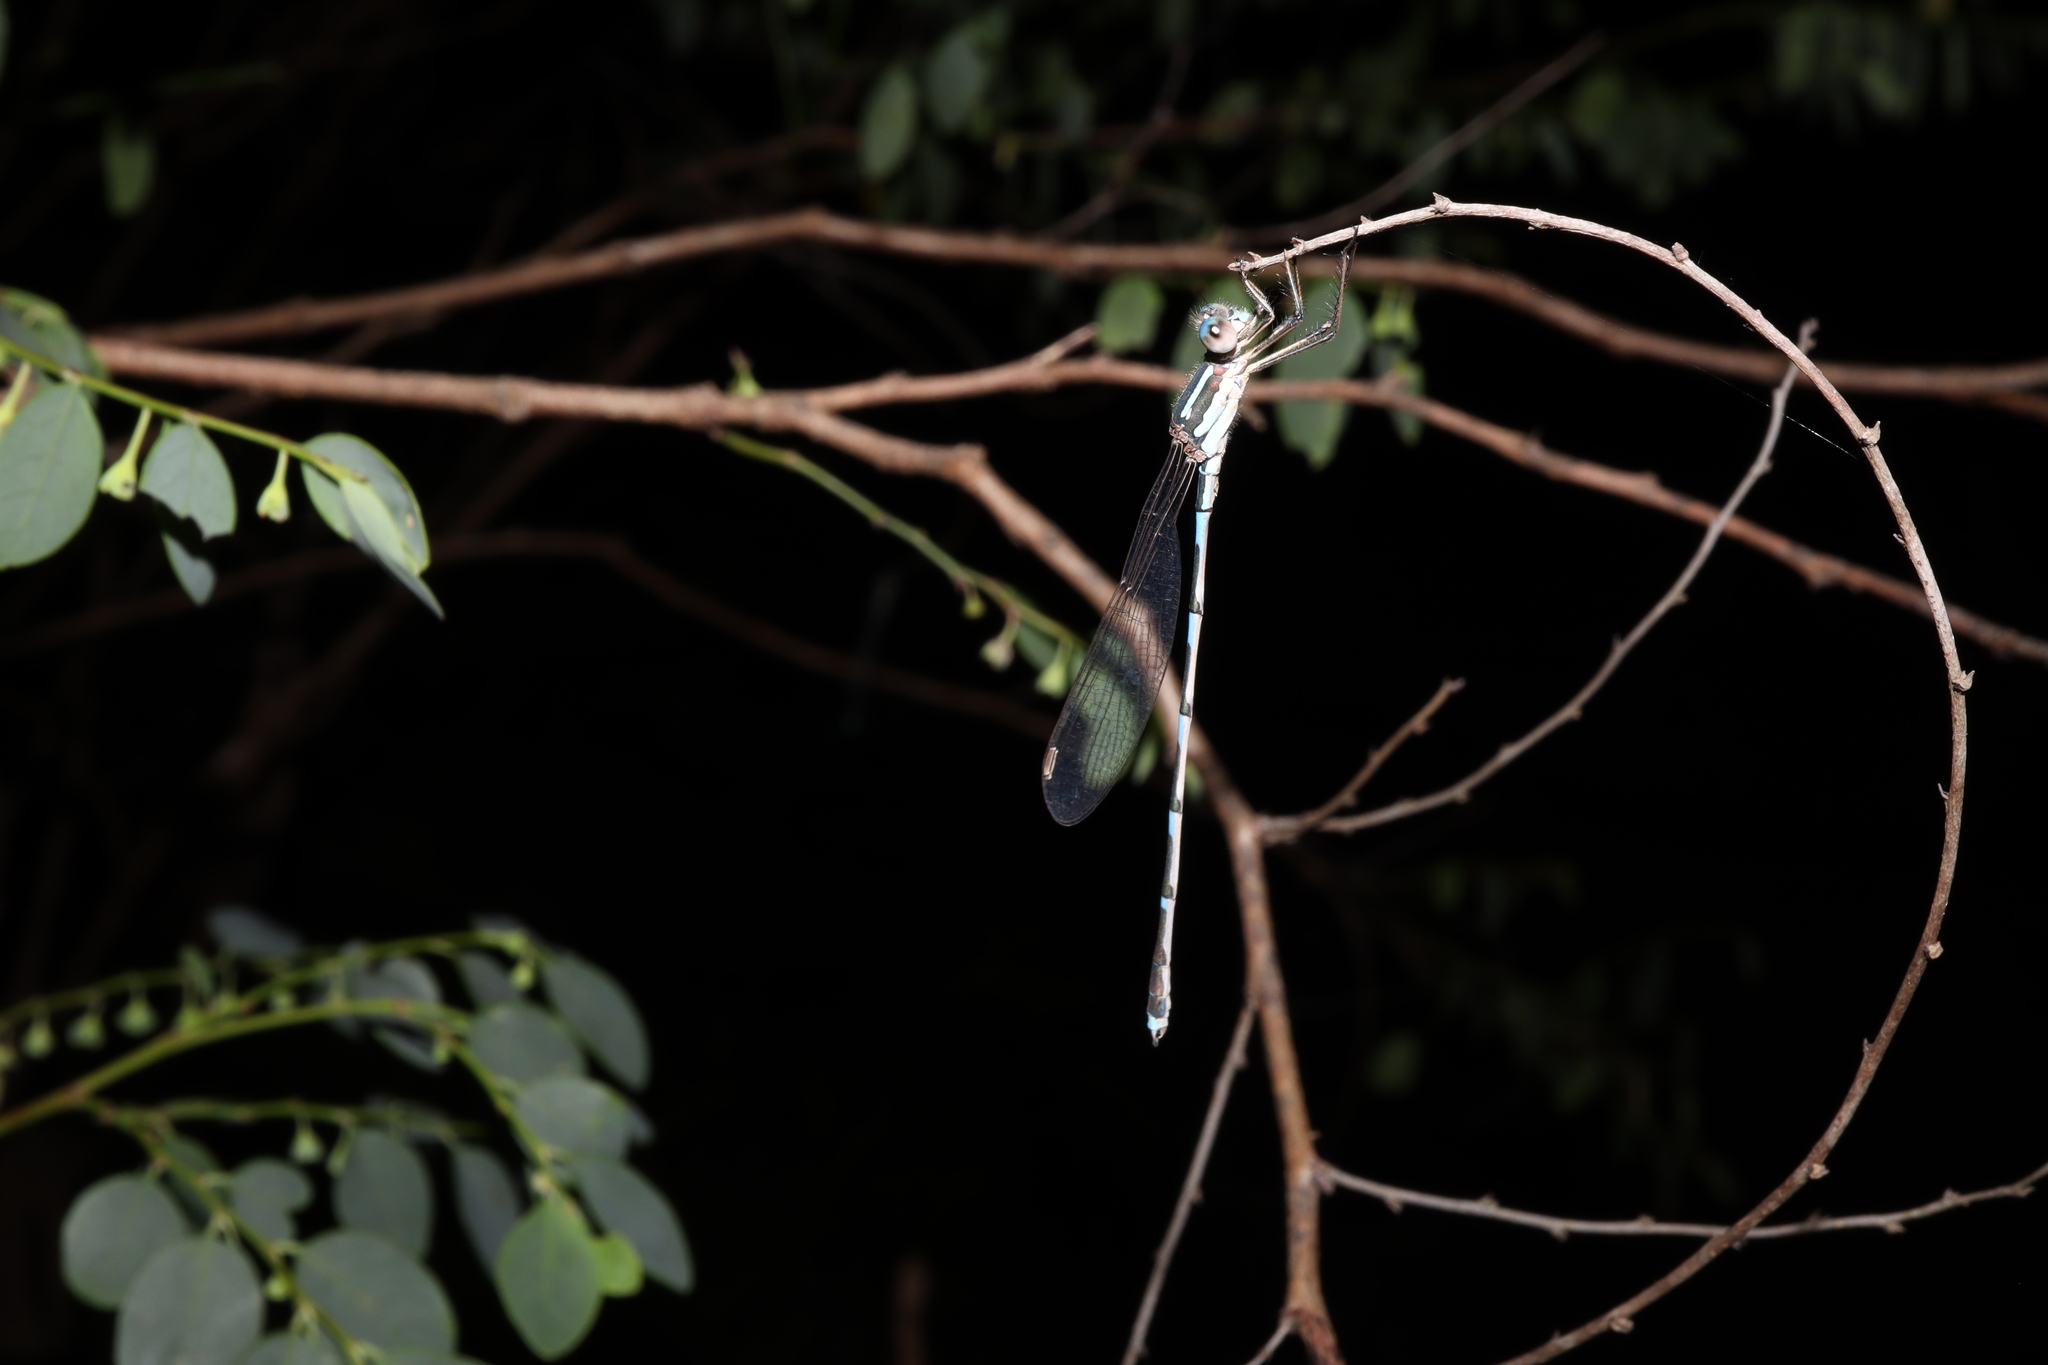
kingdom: Animalia
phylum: Arthropoda
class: Insecta
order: Odonata
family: Lestidae
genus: Austrolestes
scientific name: Austrolestes leda
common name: Wandering ringtail
